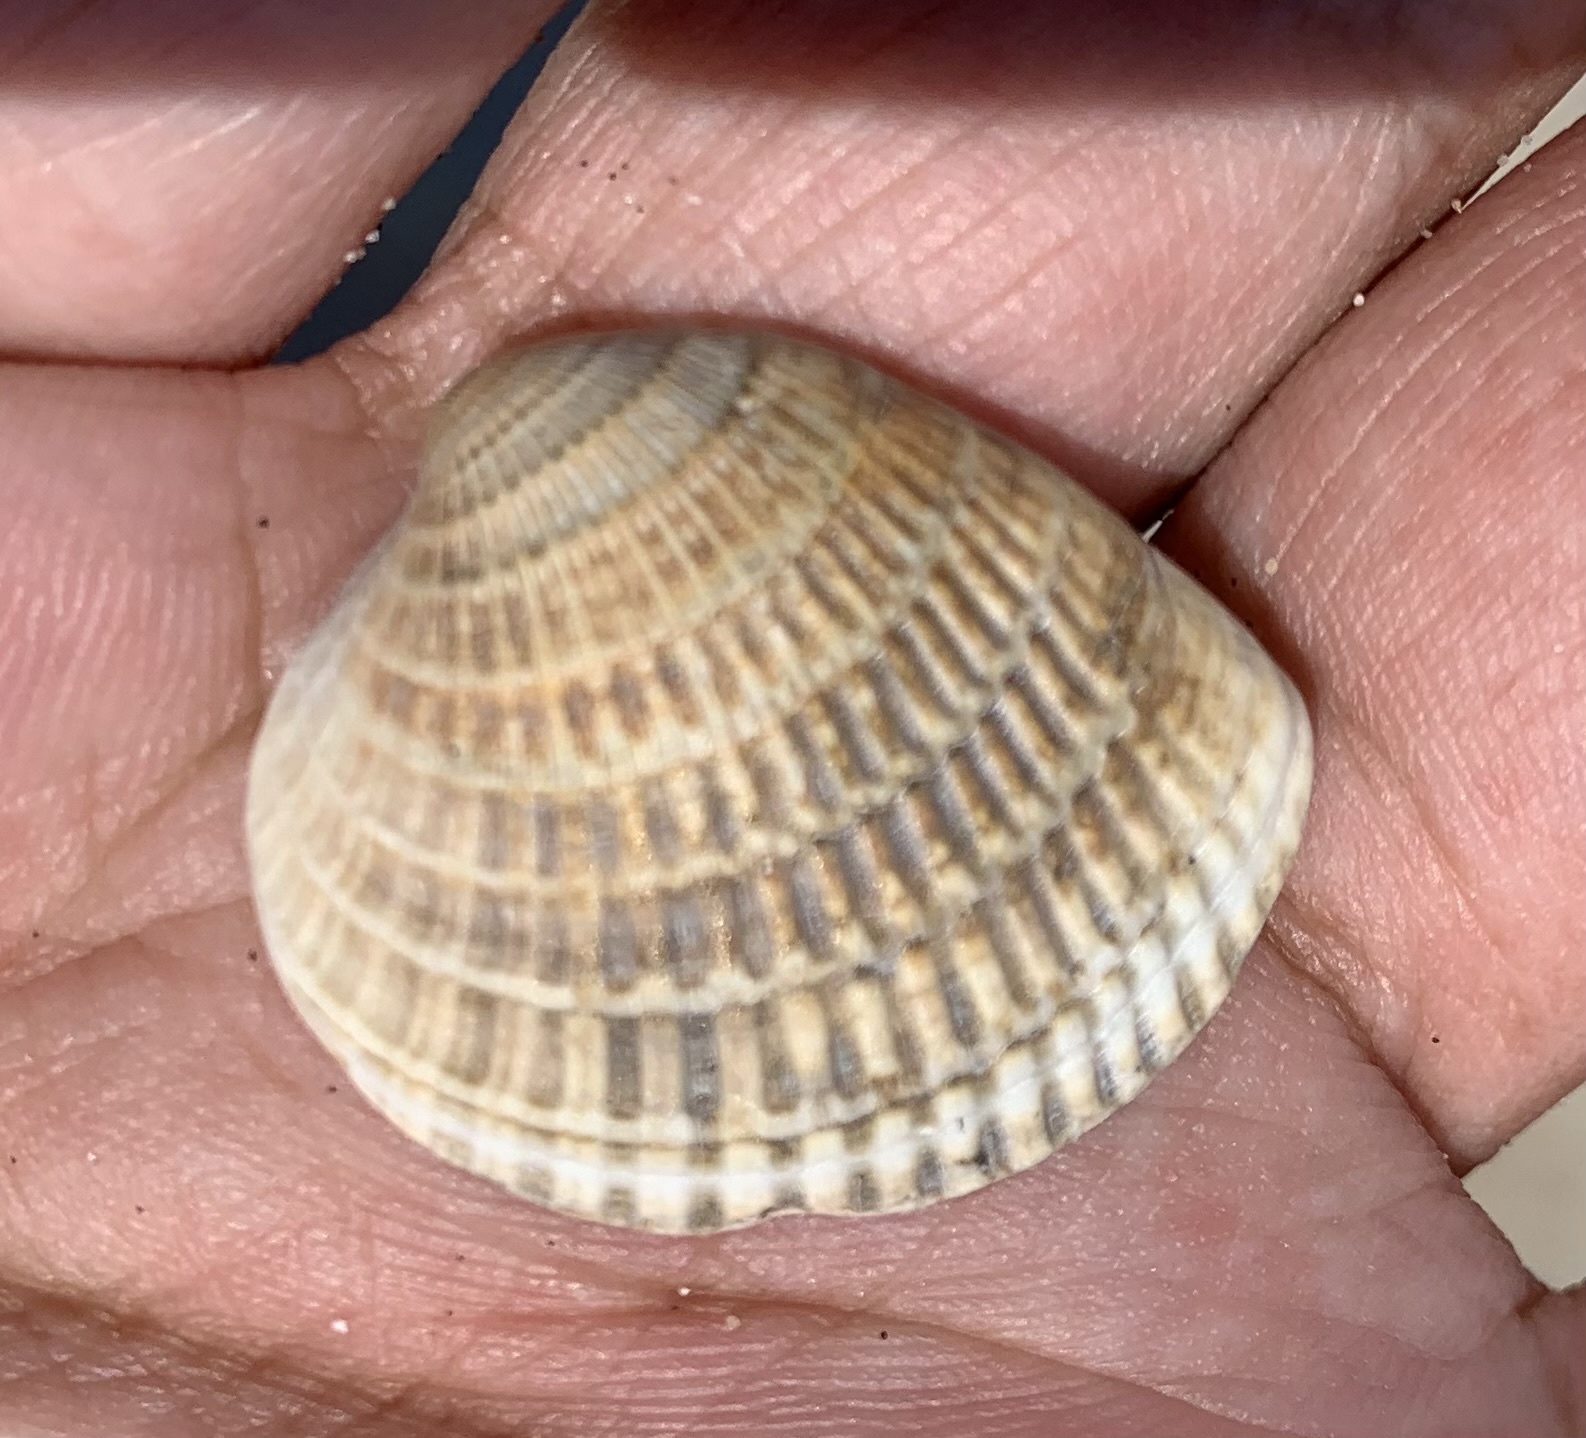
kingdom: Animalia
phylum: Mollusca
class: Bivalvia
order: Venerida
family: Veneridae
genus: Chione
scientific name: Chione elevata
